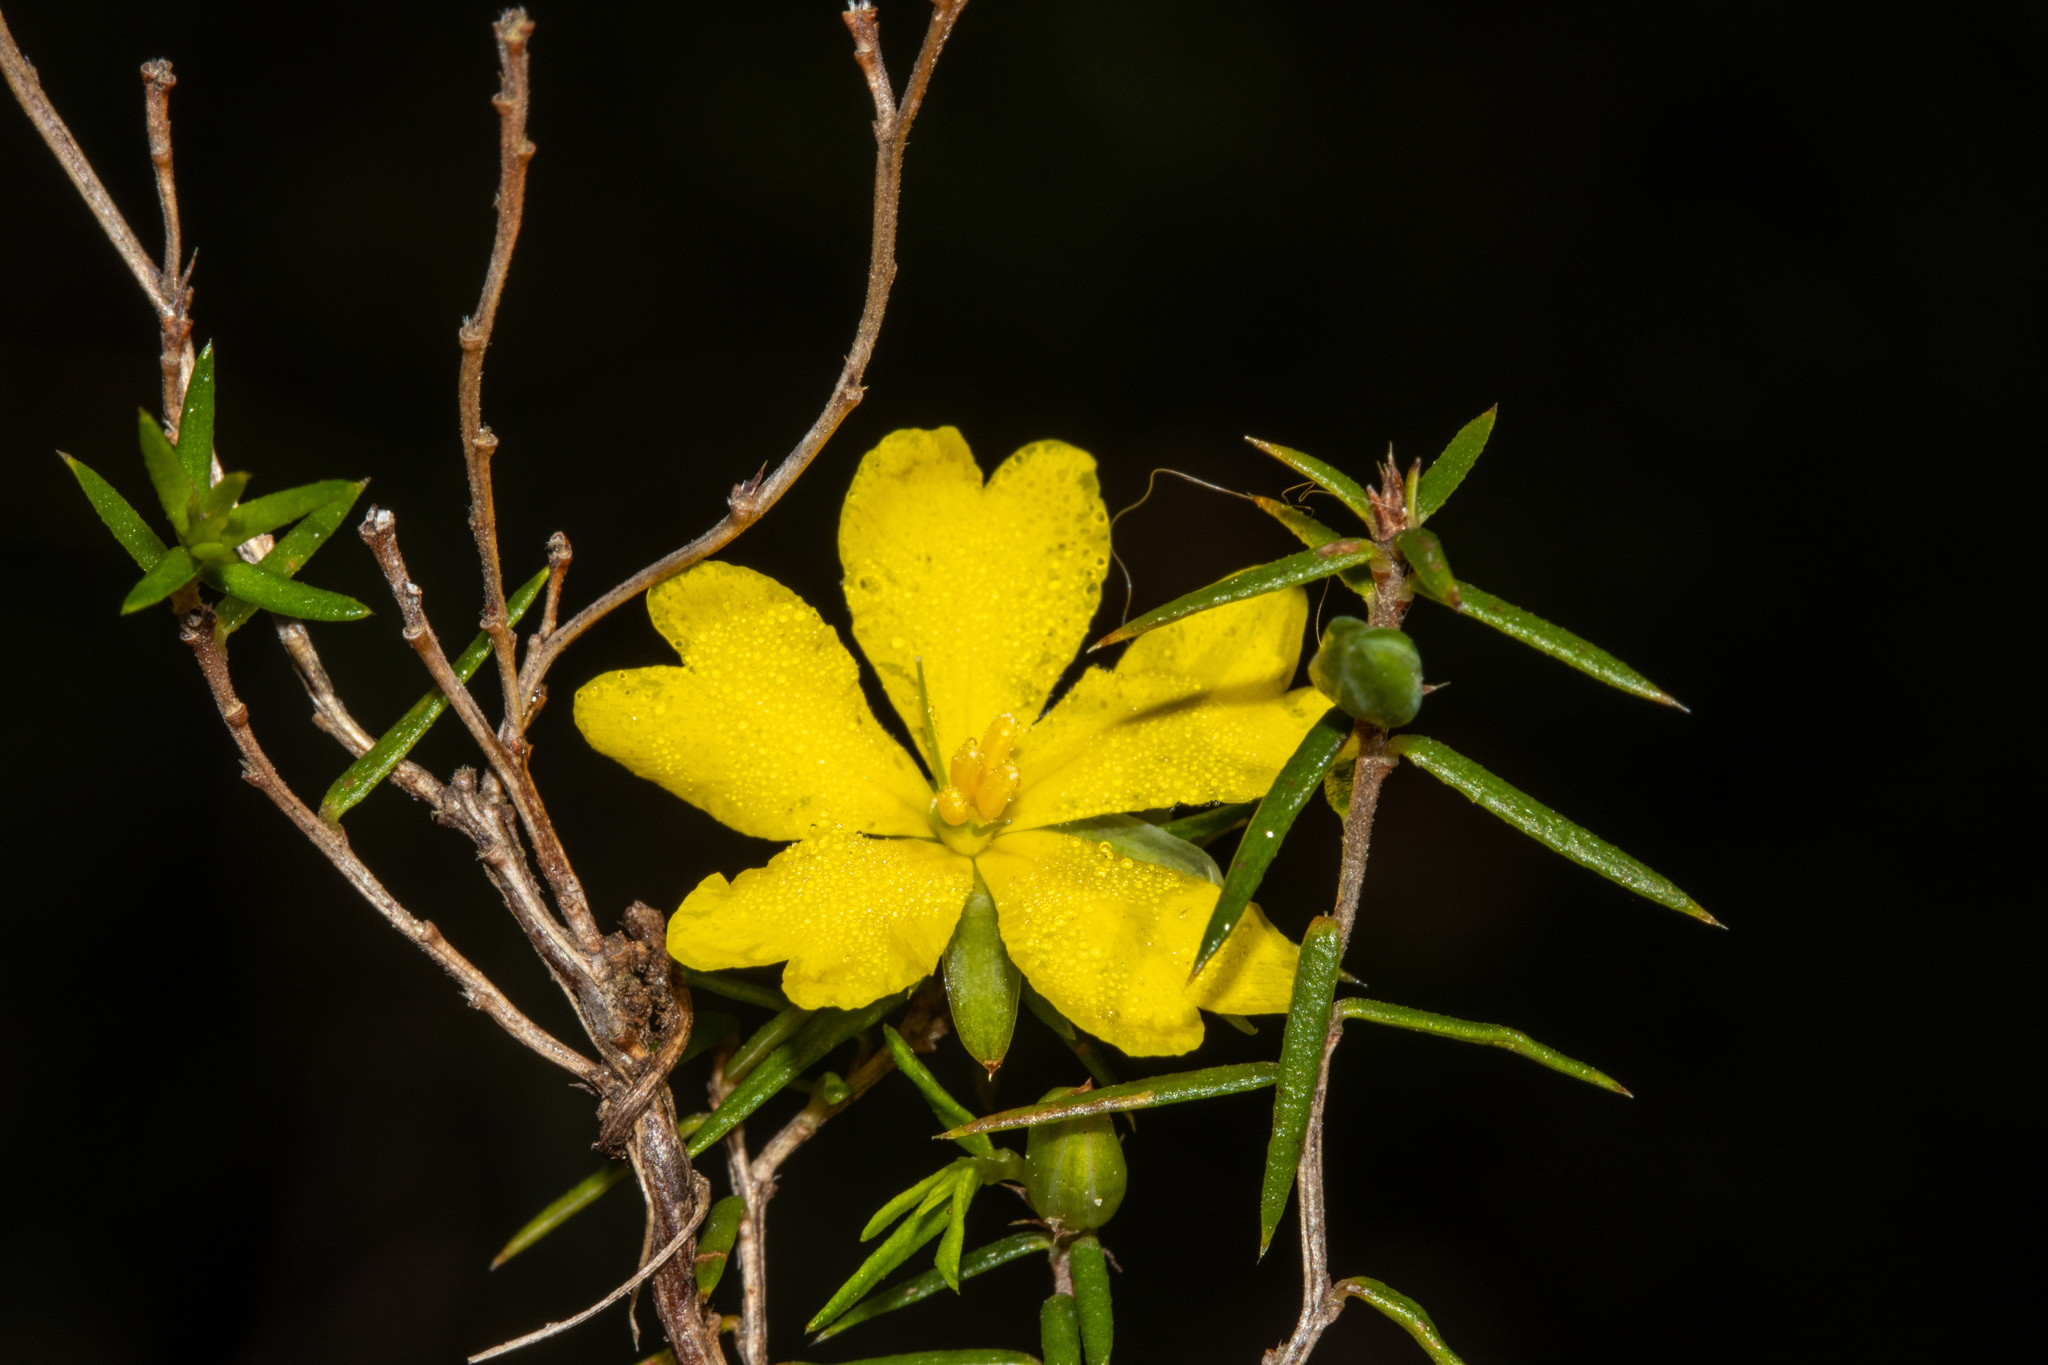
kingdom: Plantae
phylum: Tracheophyta
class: Magnoliopsida
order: Dilleniales
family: Dilleniaceae
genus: Hibbertia
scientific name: Hibbertia exutiacies
